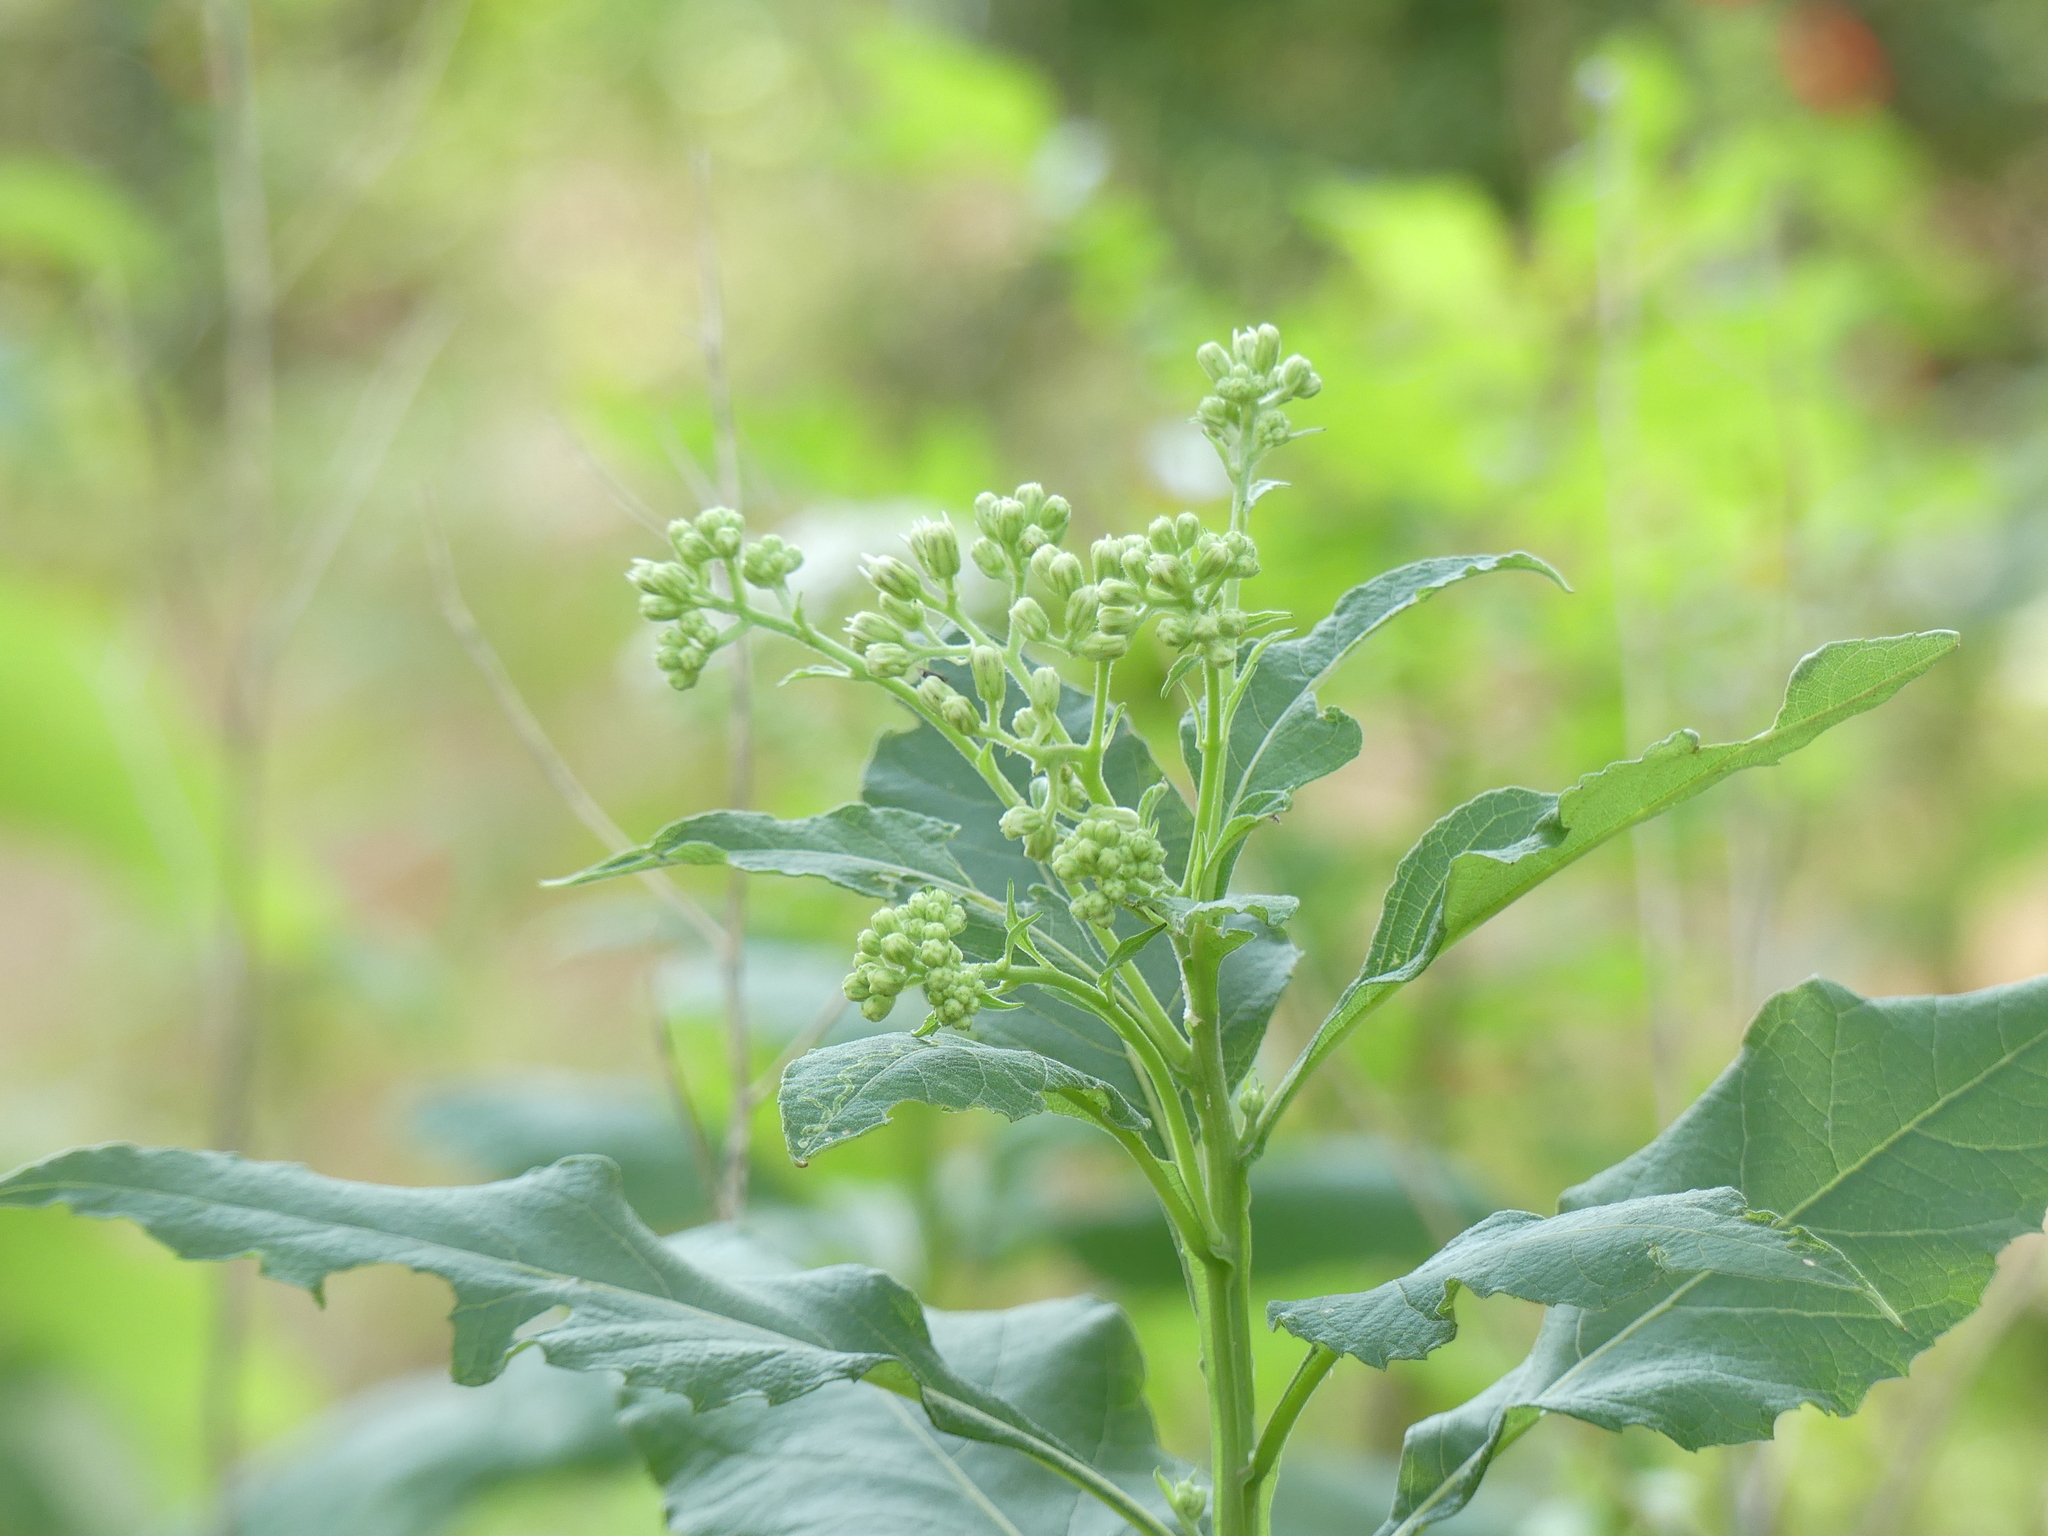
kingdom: Plantae
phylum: Tracheophyta
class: Magnoliopsida
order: Asterales
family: Asteraceae
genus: Verbesina
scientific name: Verbesina virginica
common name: Frostweed
